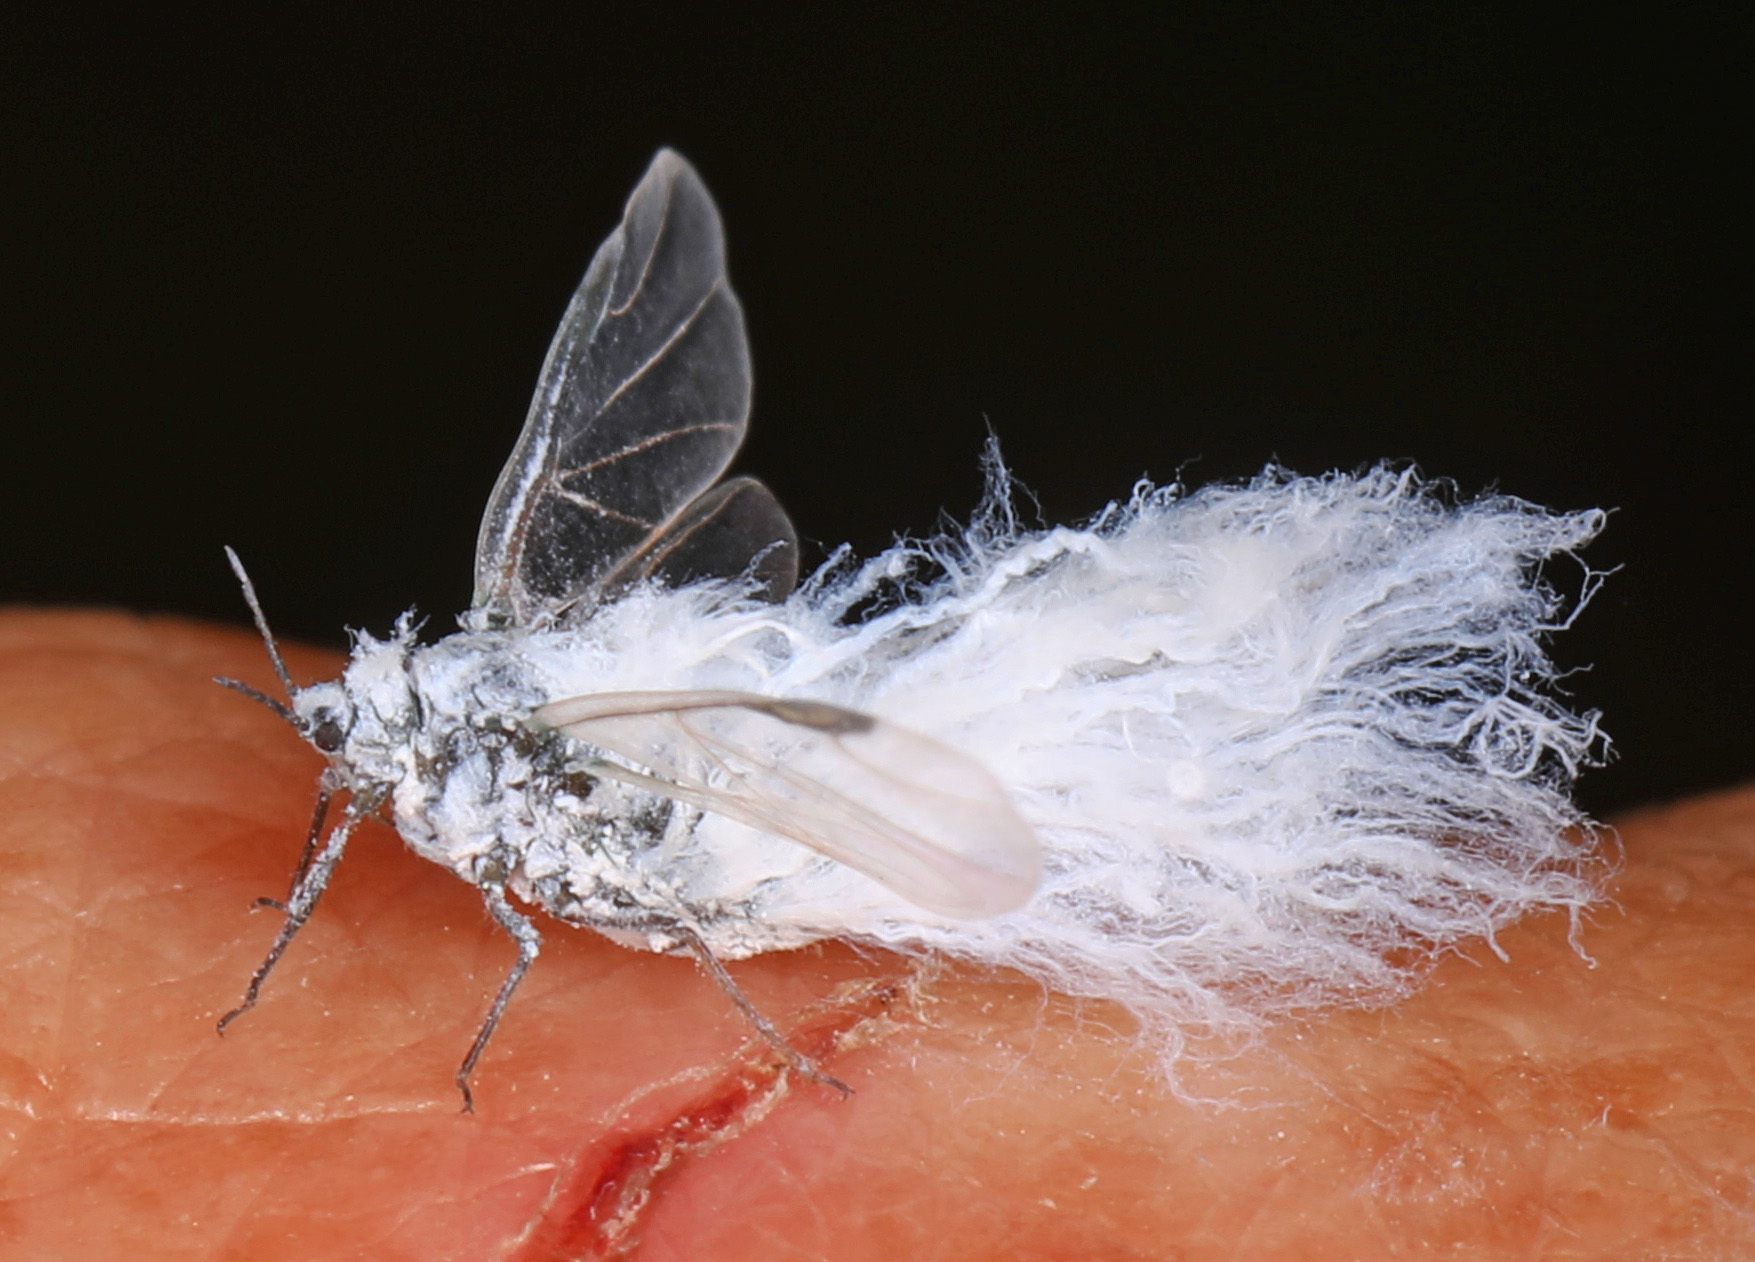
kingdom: Animalia
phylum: Arthropoda
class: Insecta
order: Hemiptera
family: Aphididae
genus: Prociphilus
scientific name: Prociphilus tessellatus
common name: Woolly alder aphid
